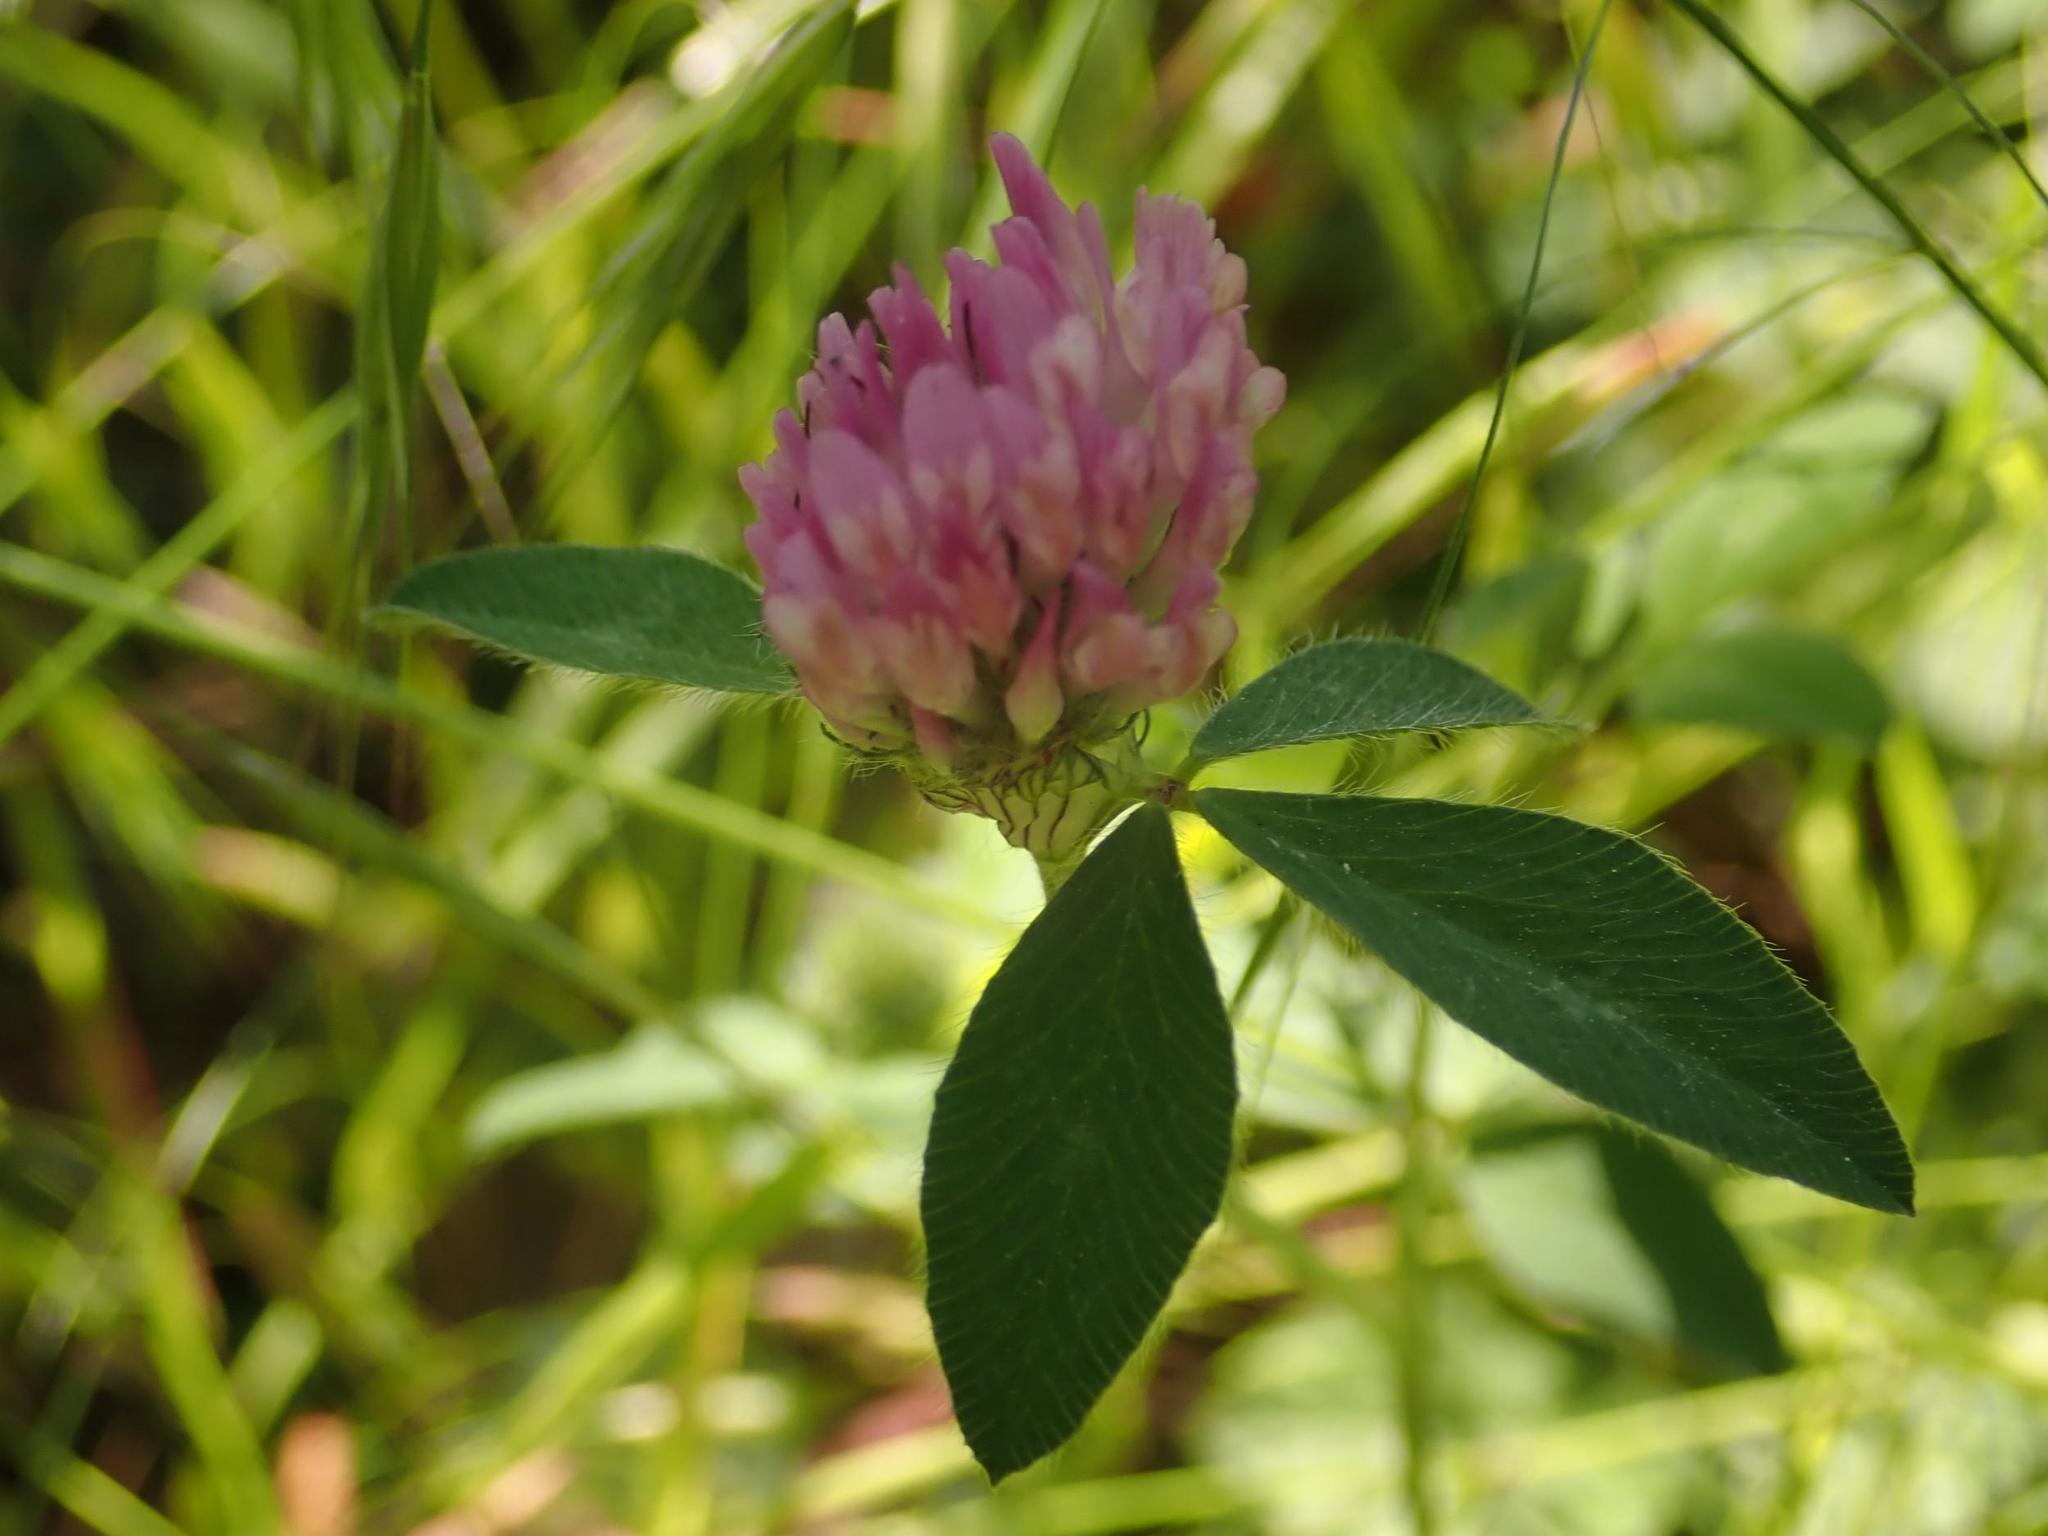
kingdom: Plantae
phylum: Tracheophyta
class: Magnoliopsida
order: Fabales
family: Fabaceae
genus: Trifolium
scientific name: Trifolium pratense
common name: Red clover
